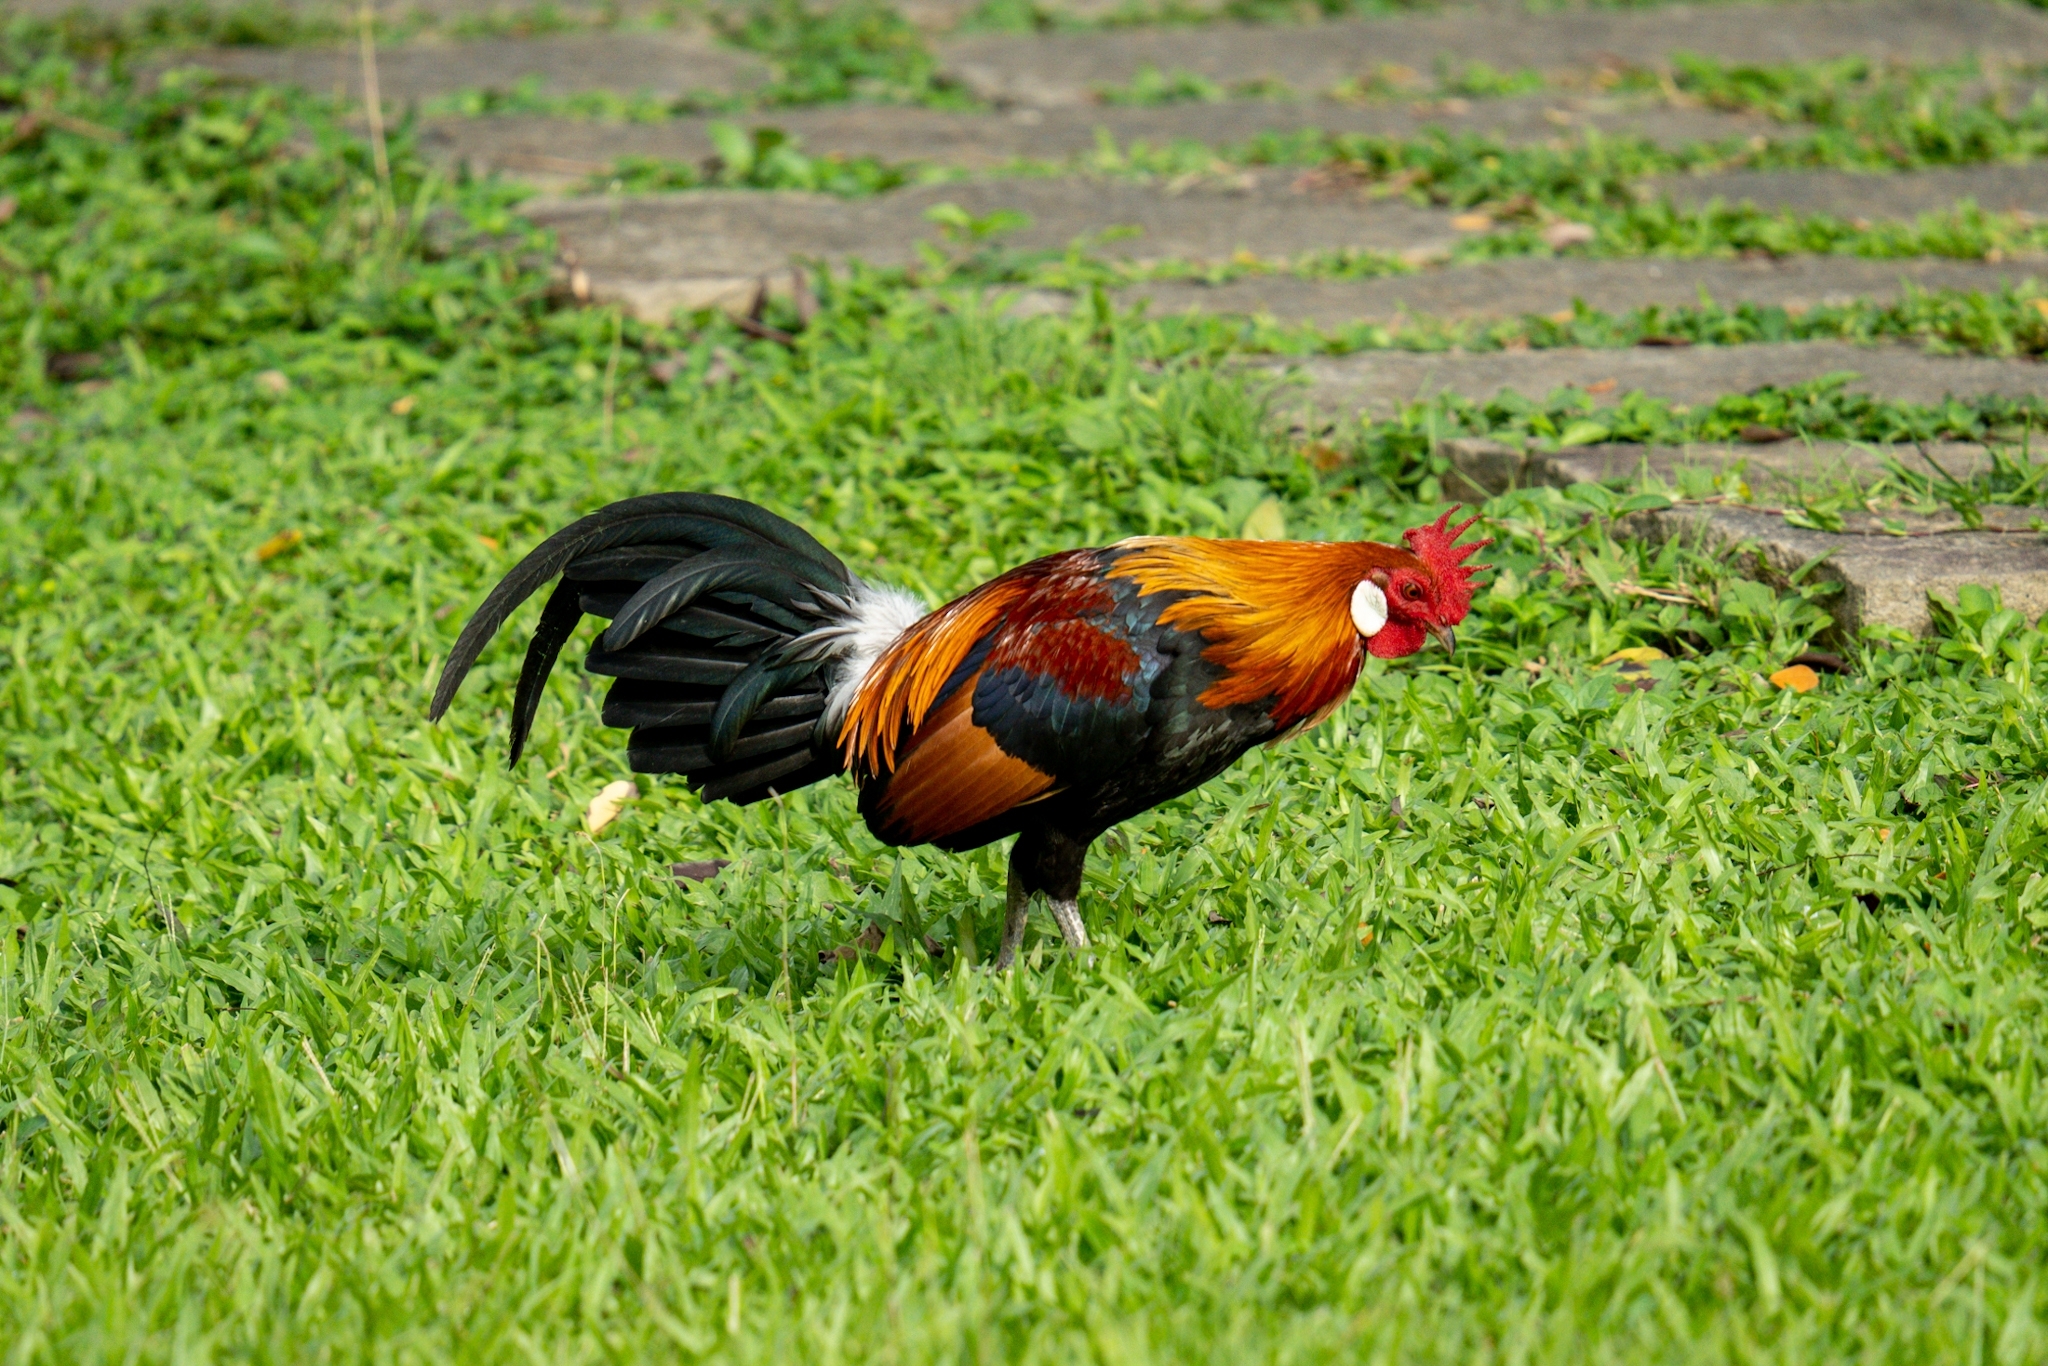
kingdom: Animalia
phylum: Chordata
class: Aves
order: Galliformes
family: Phasianidae
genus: Gallus
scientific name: Gallus gallus
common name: Red junglefowl
